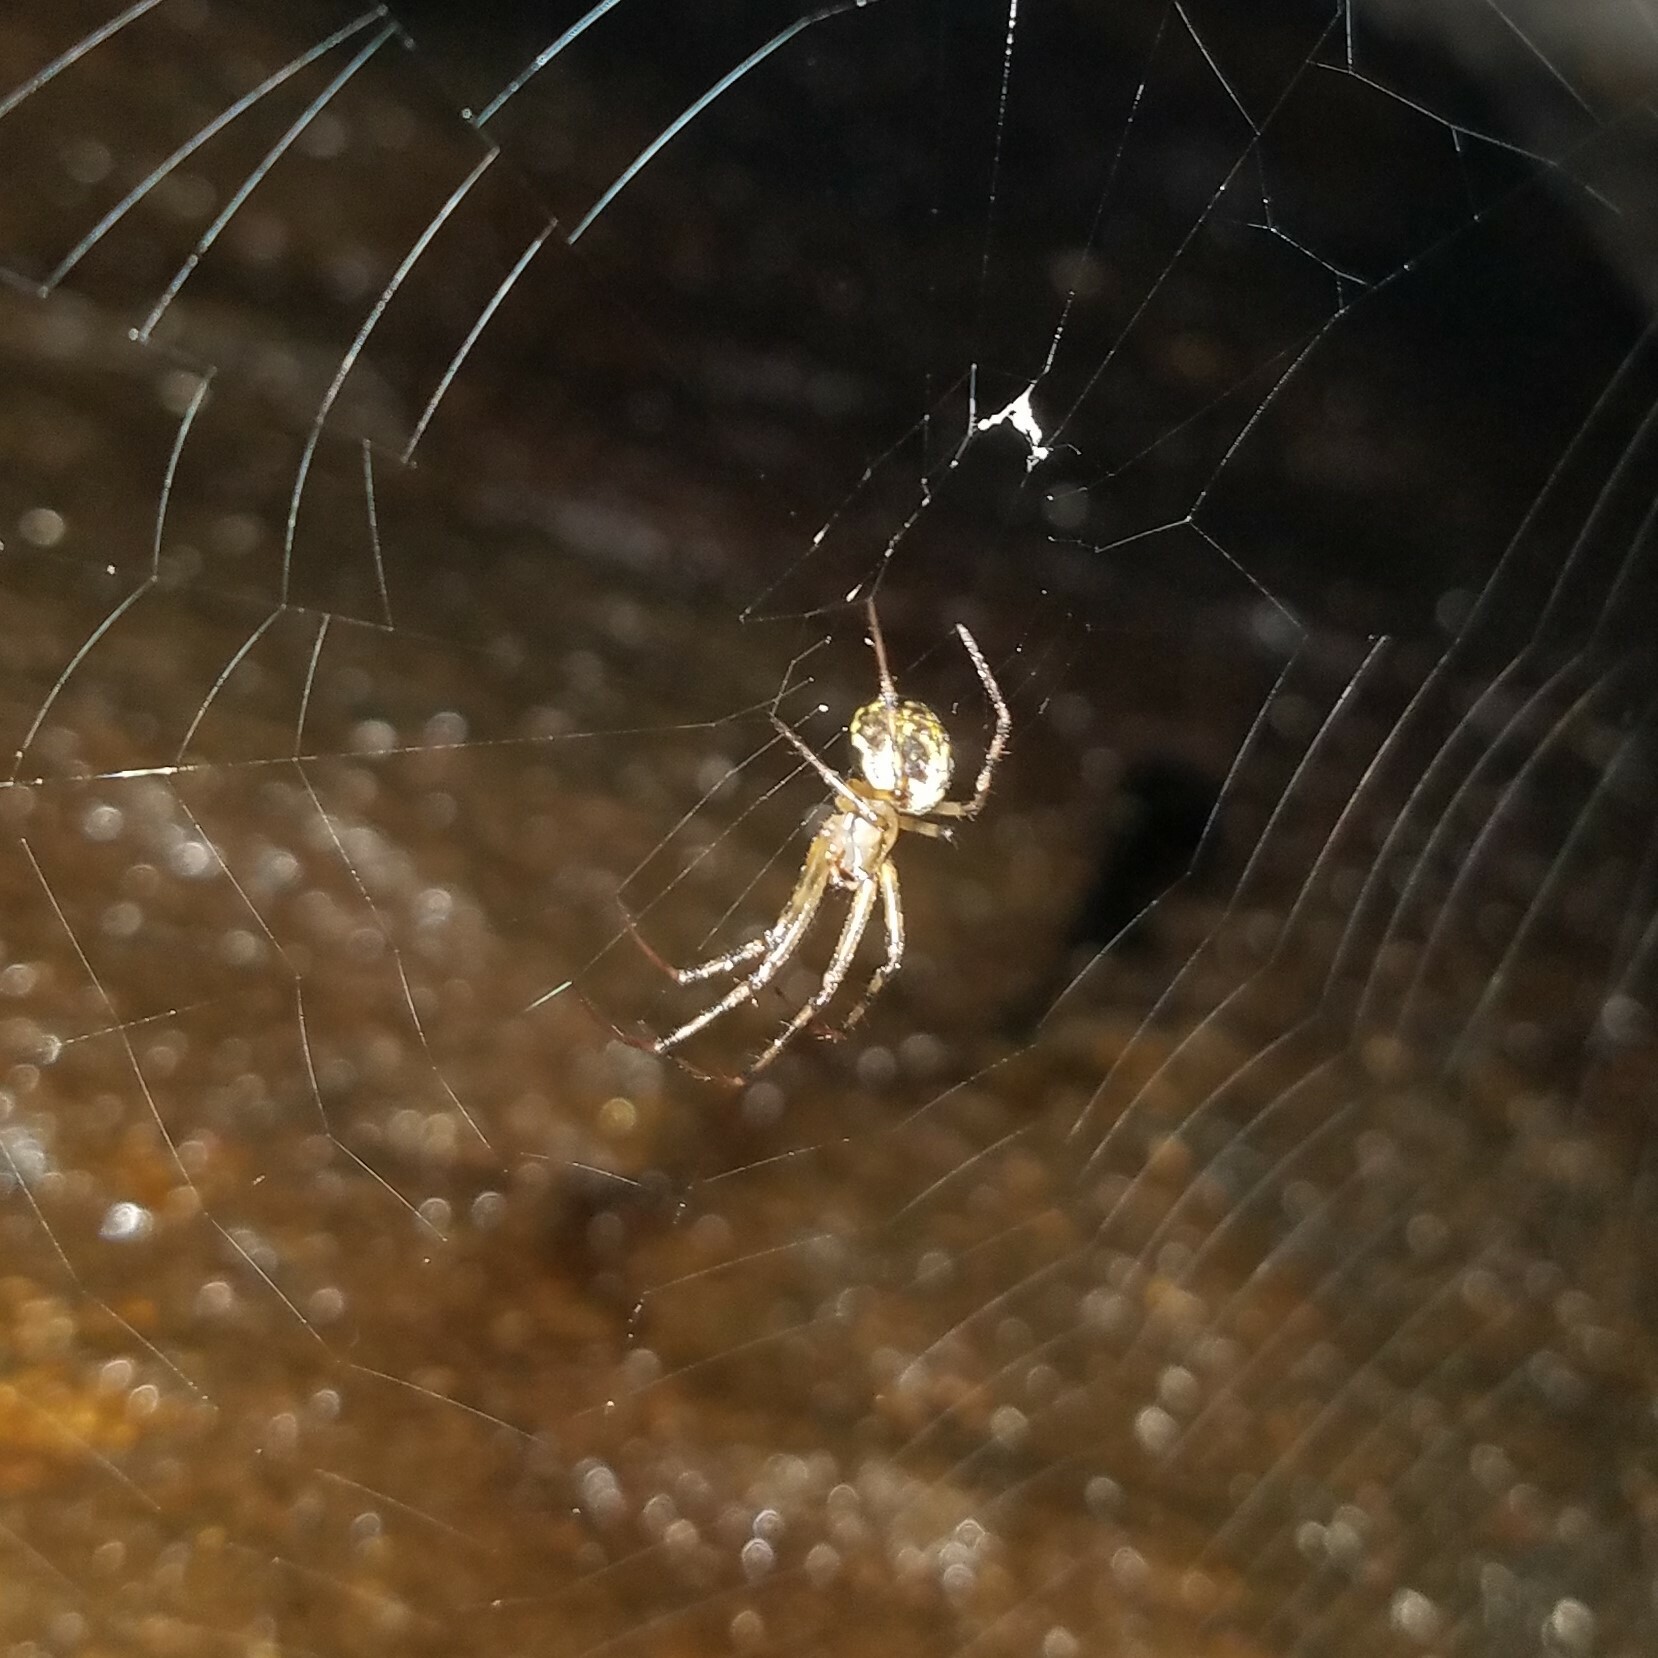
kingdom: Animalia
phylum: Arthropoda
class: Arachnida
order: Araneae
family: Tetragnathidae
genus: Meta
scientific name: Meta ovalis
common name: Eastern cave long-jawed spider
